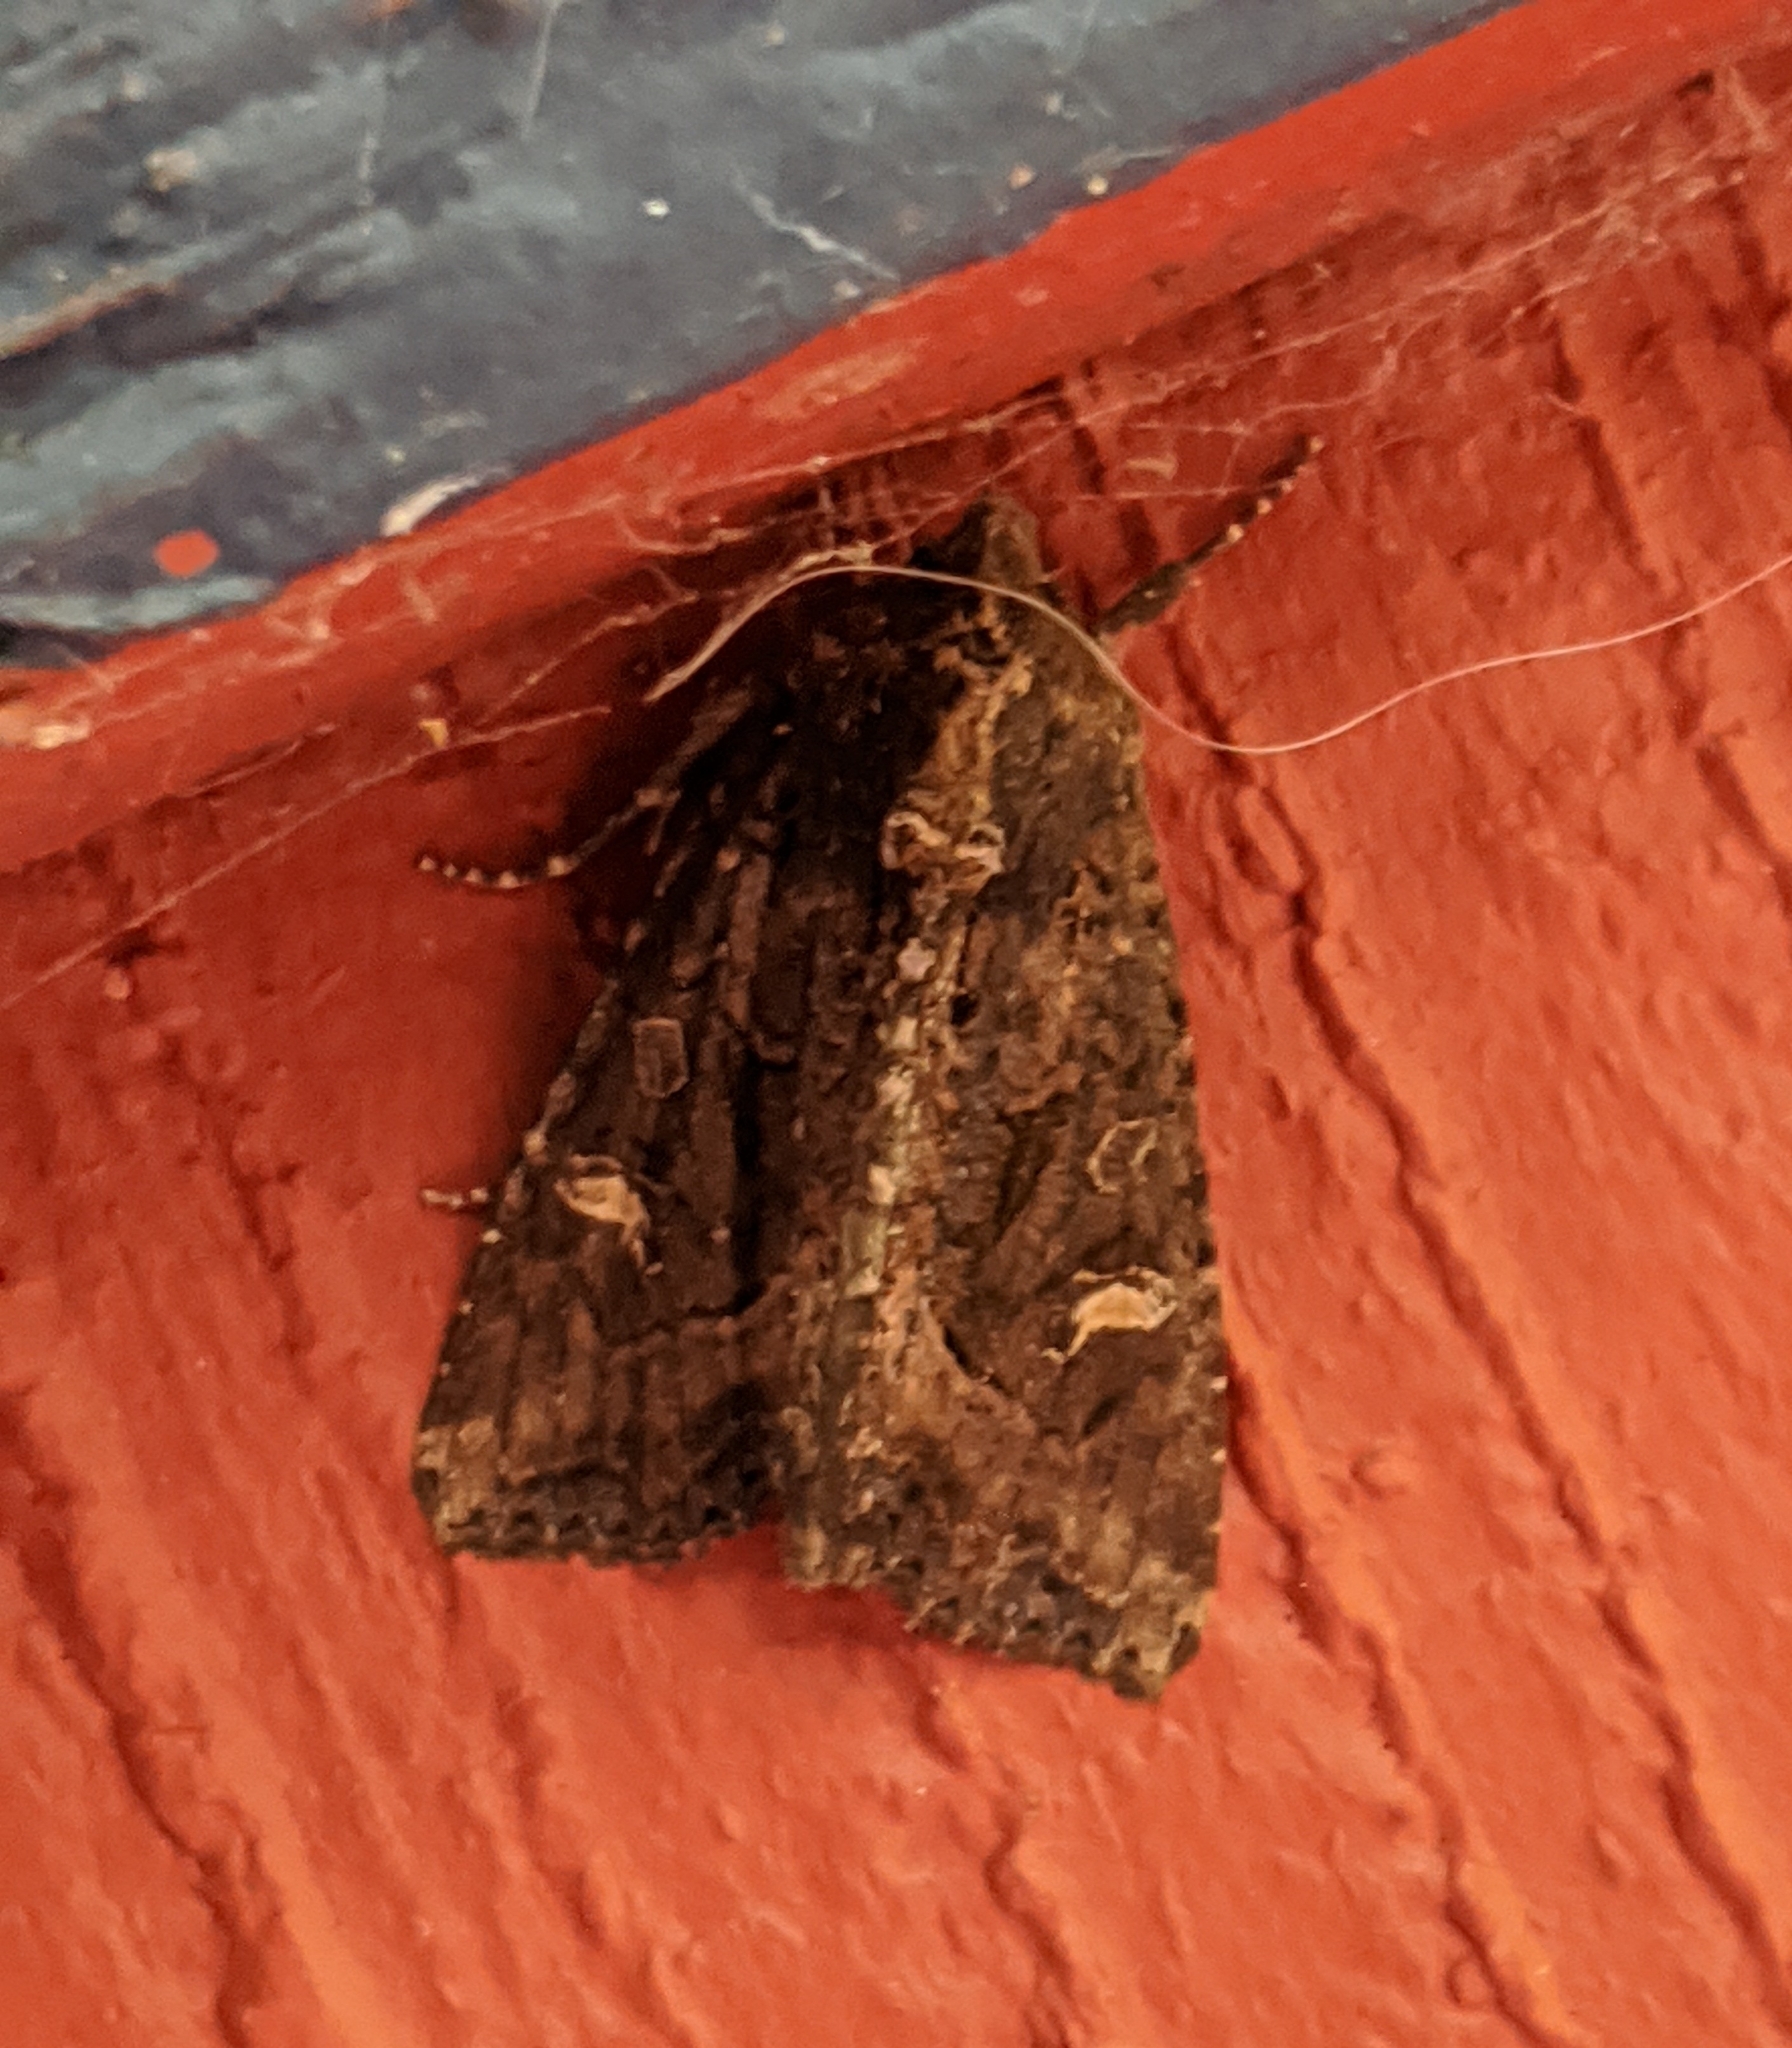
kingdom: Animalia
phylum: Arthropoda
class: Insecta
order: Lepidoptera
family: Noctuidae
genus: Helotropha
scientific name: Helotropha reniformis
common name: Kidney-spotted rustic moth
